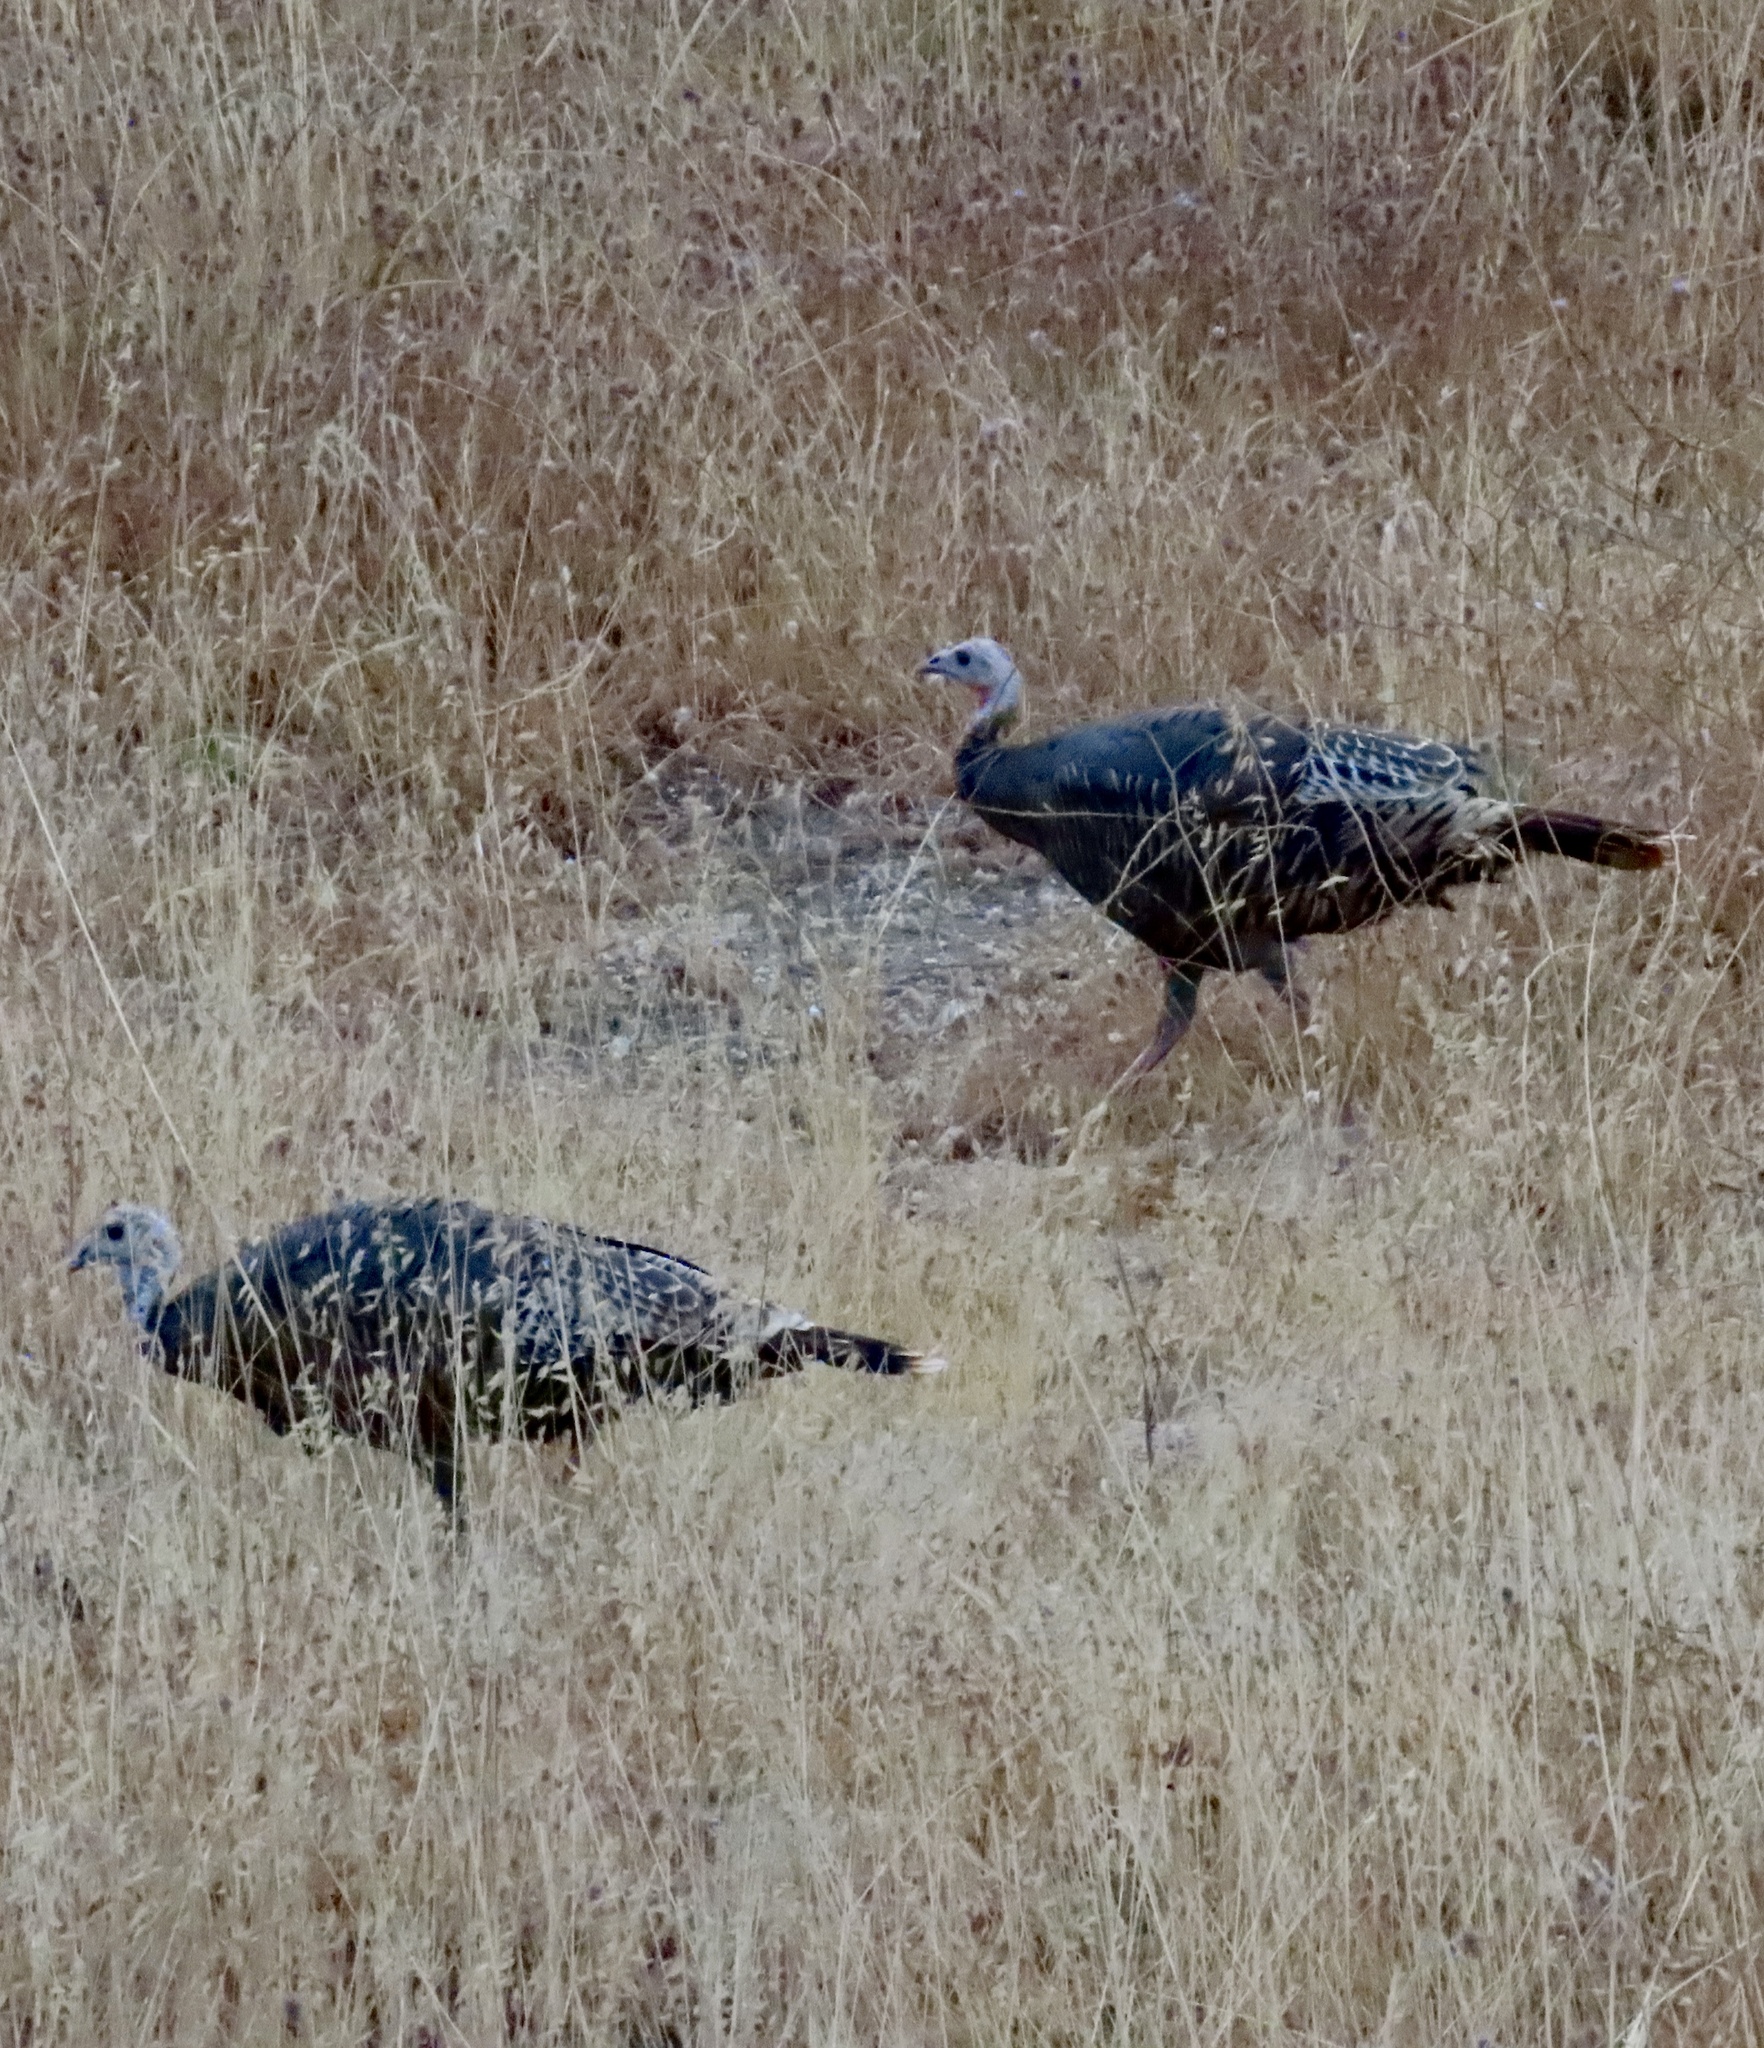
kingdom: Animalia
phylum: Chordata
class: Aves
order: Galliformes
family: Phasianidae
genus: Meleagris
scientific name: Meleagris gallopavo
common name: Wild turkey
